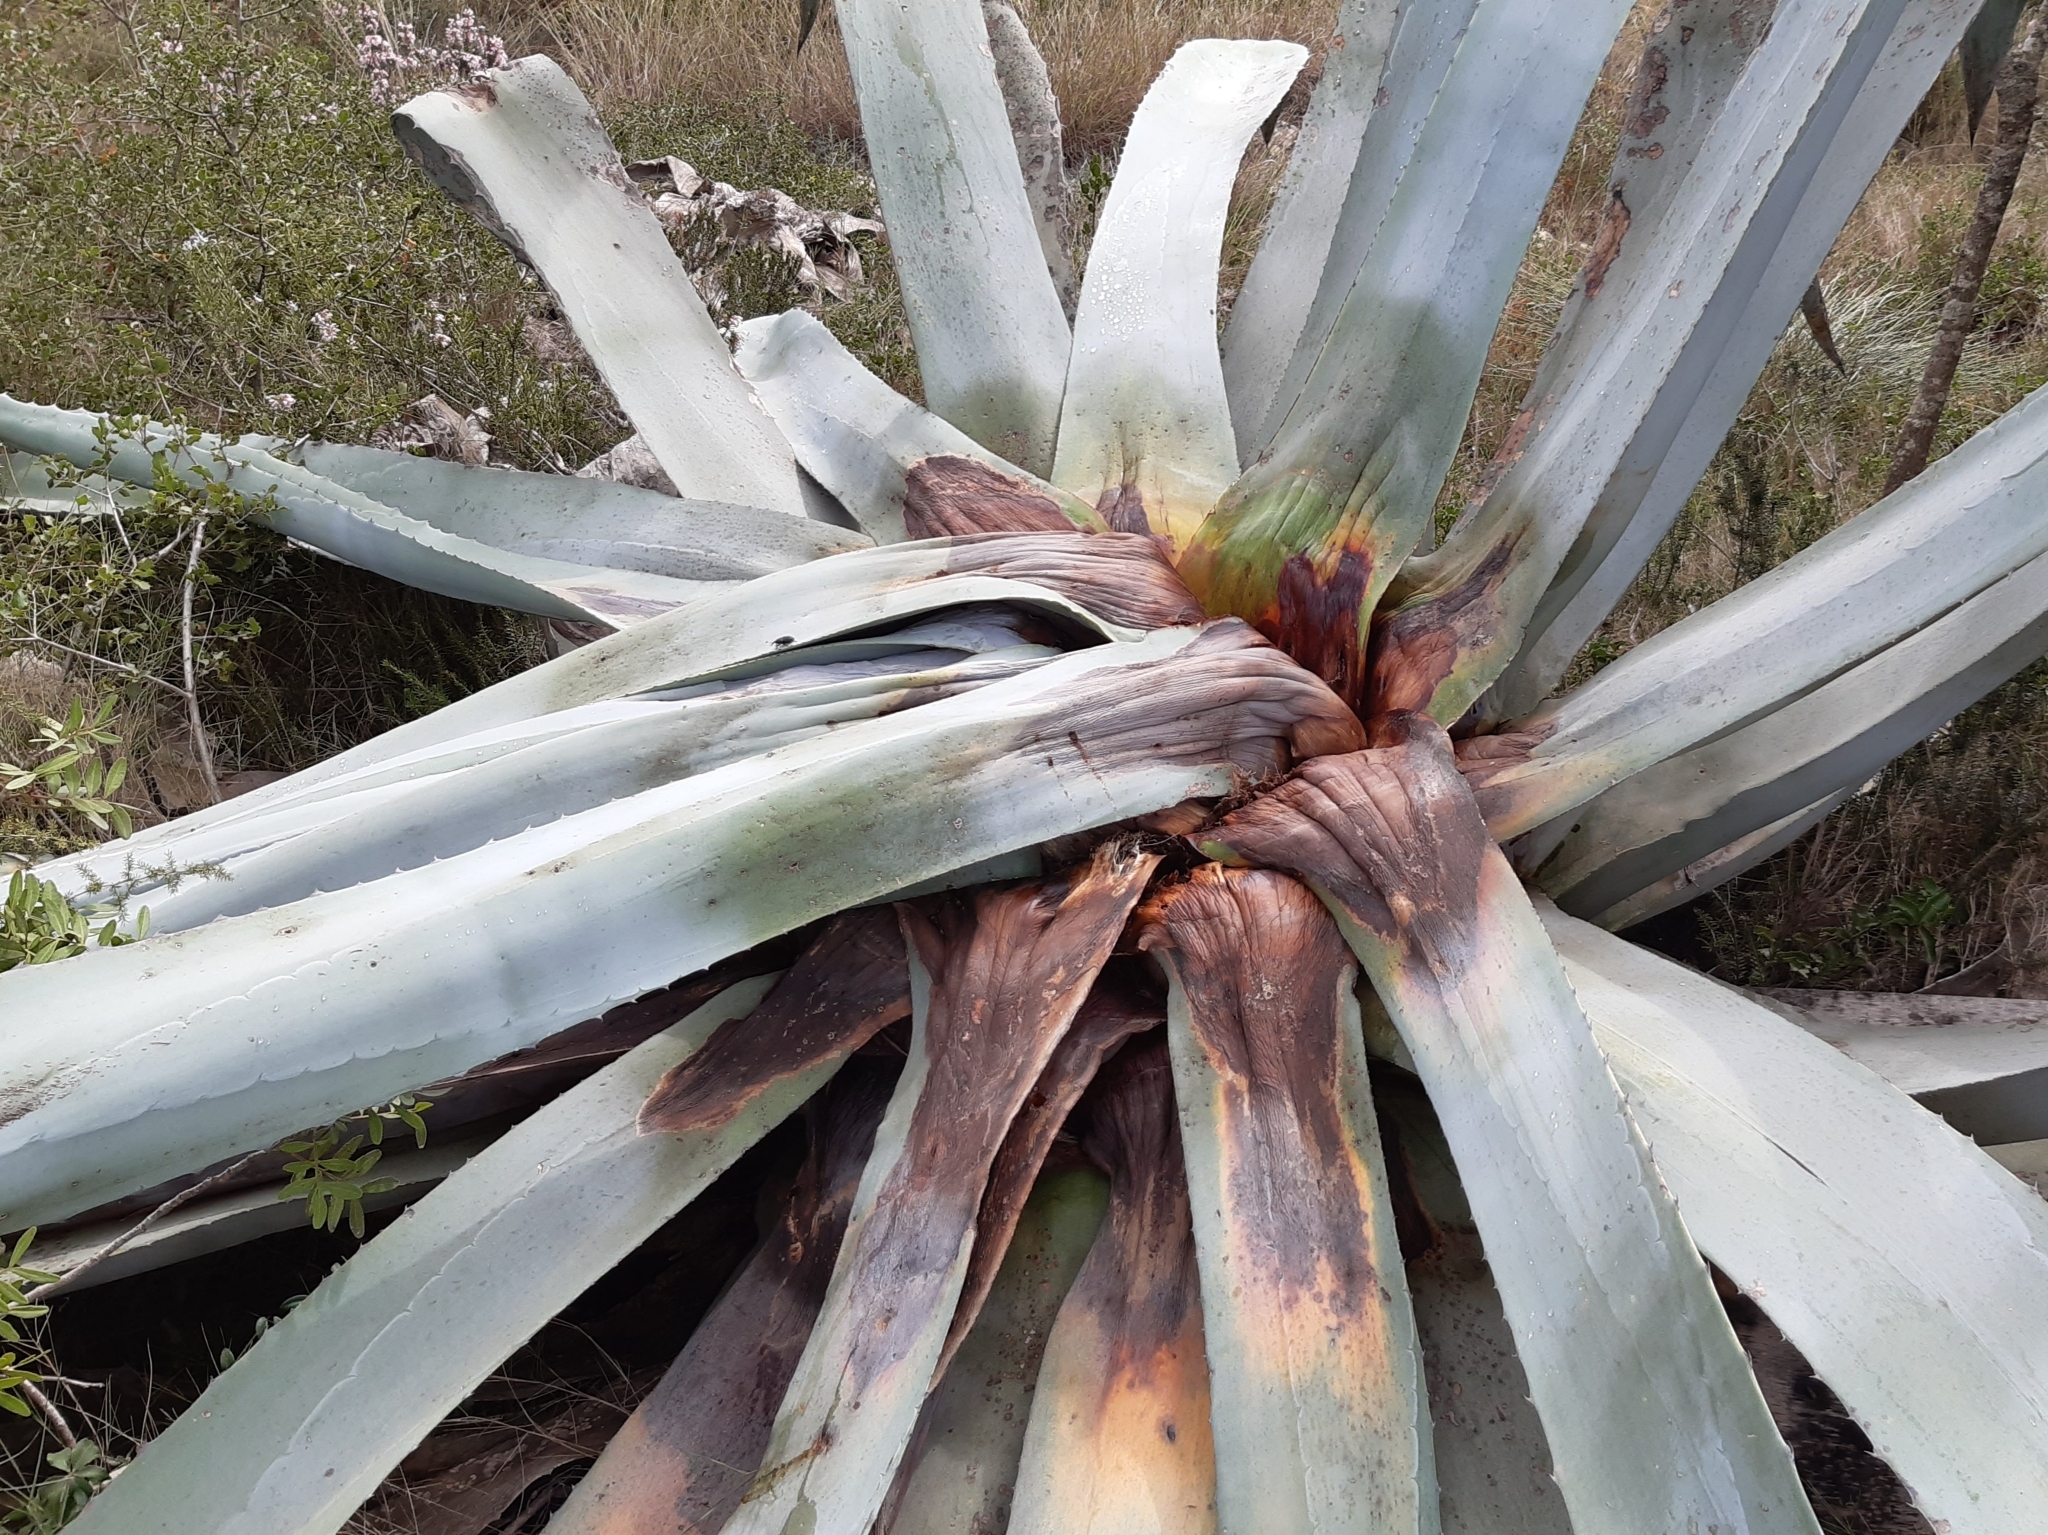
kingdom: Animalia
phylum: Arthropoda
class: Insecta
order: Coleoptera
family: Dryophthoridae
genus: Scyphophorus
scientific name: Scyphophorus acupunctatus
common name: Weevil
